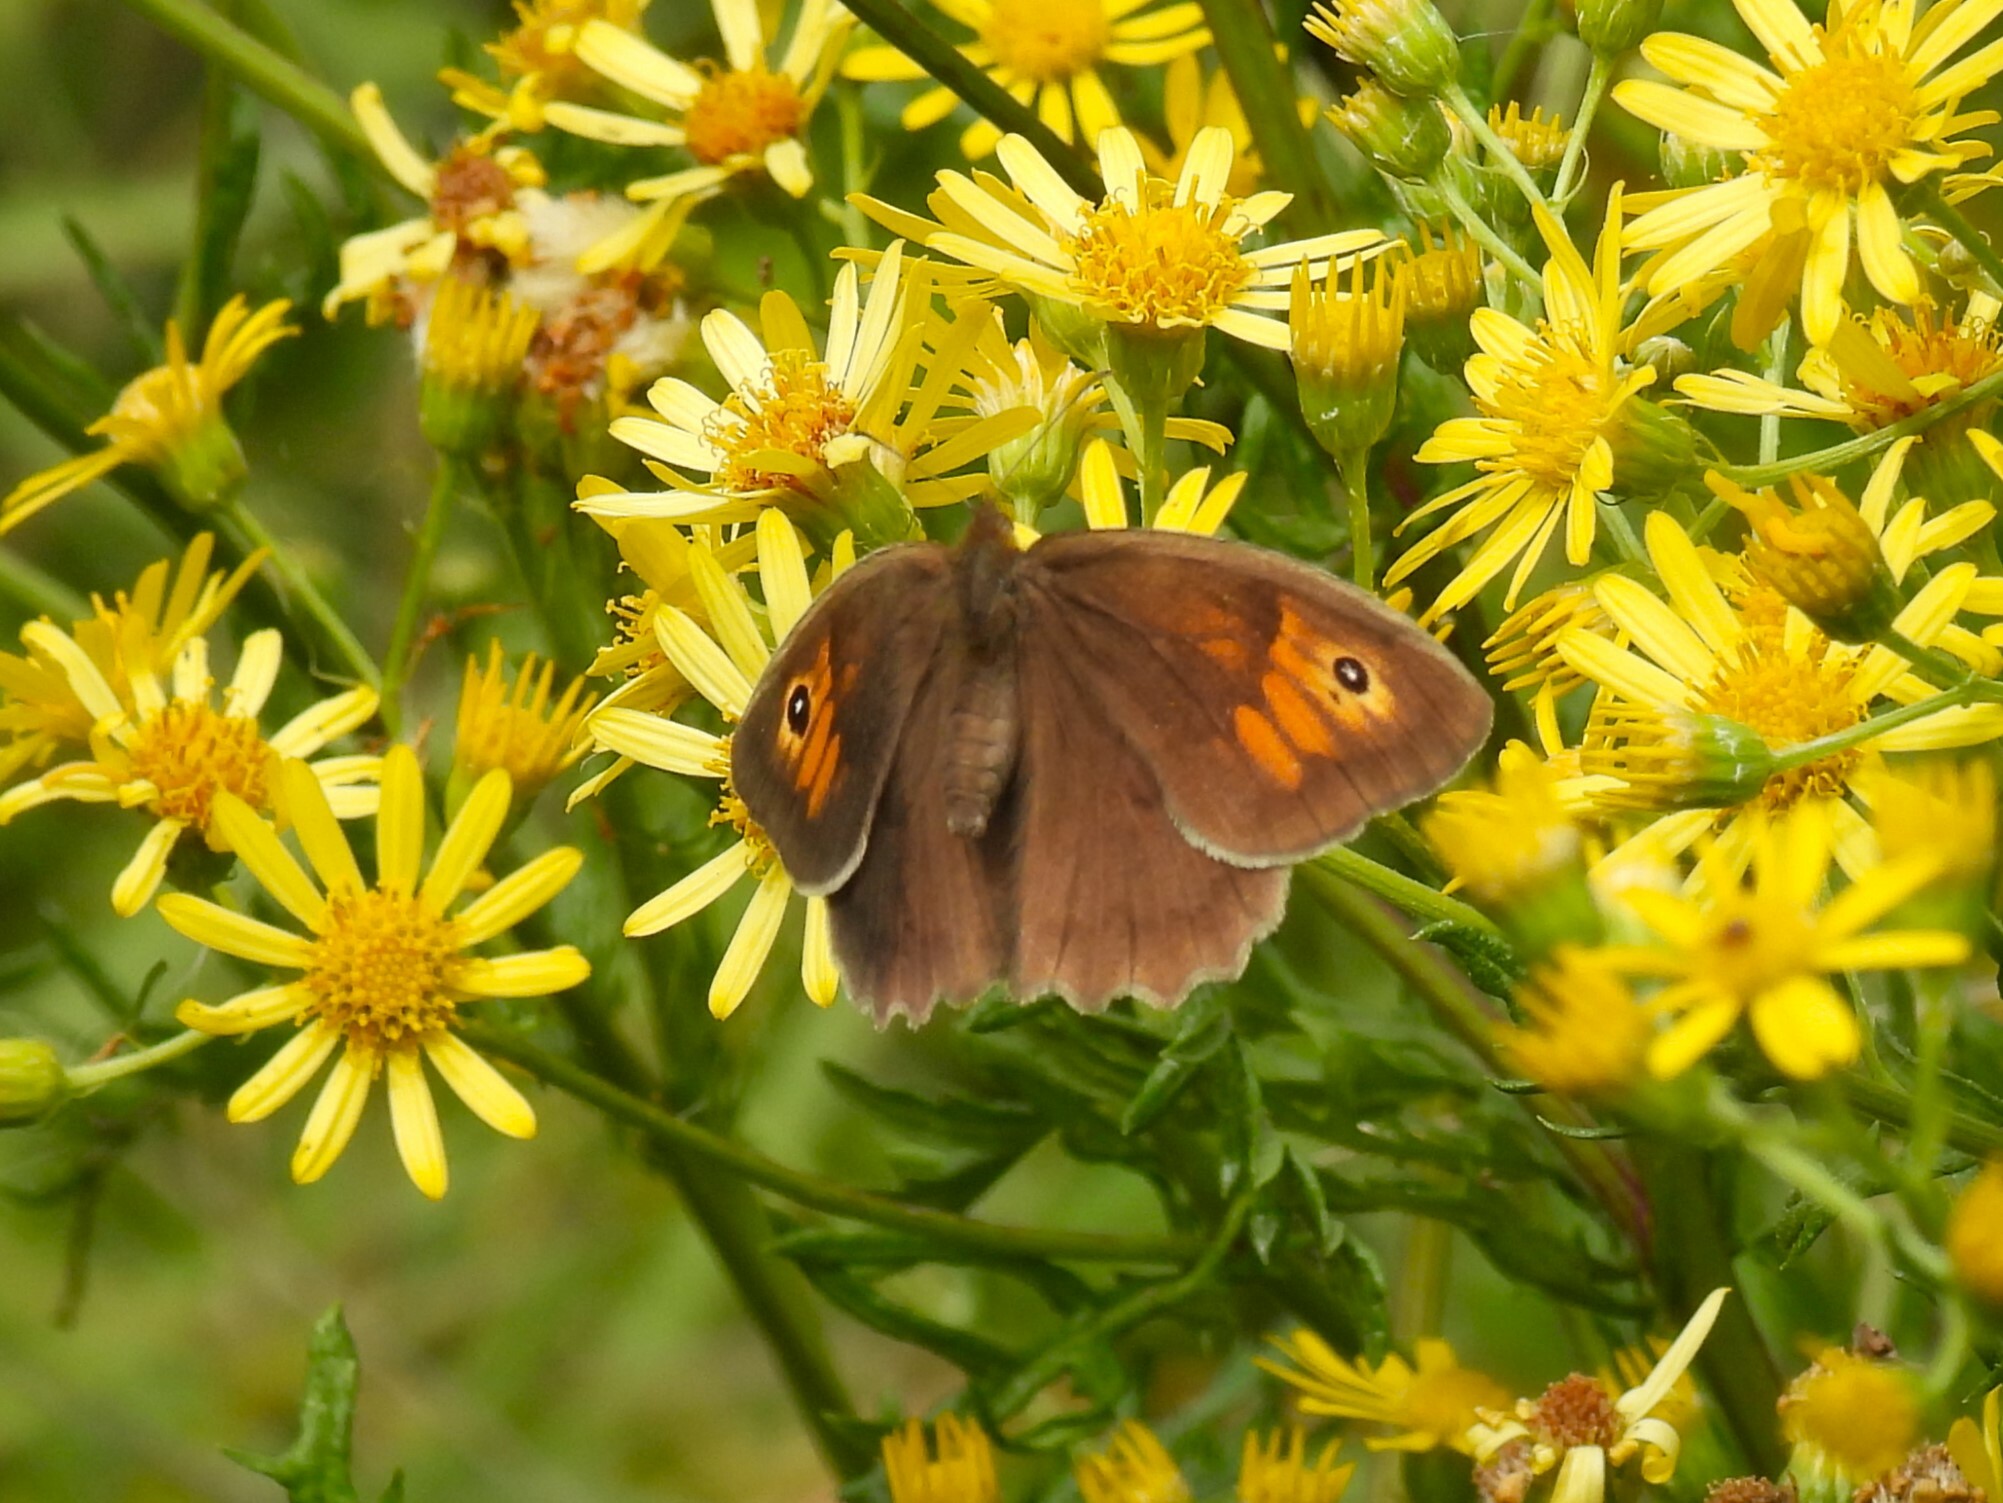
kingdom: Animalia
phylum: Arthropoda
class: Insecta
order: Lepidoptera
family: Nymphalidae
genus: Maniola
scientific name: Maniola jurtina
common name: Meadow brown
